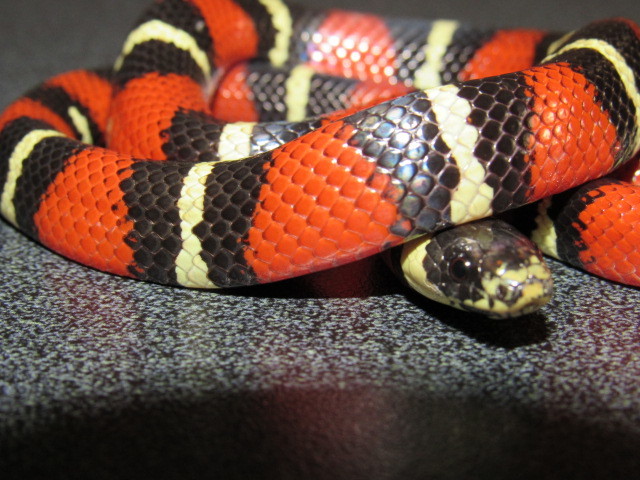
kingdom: Animalia
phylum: Chordata
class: Squamata
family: Colubridae
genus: Lampropeltis
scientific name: Lampropeltis polyzona
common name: Atlantic central american milksnake
